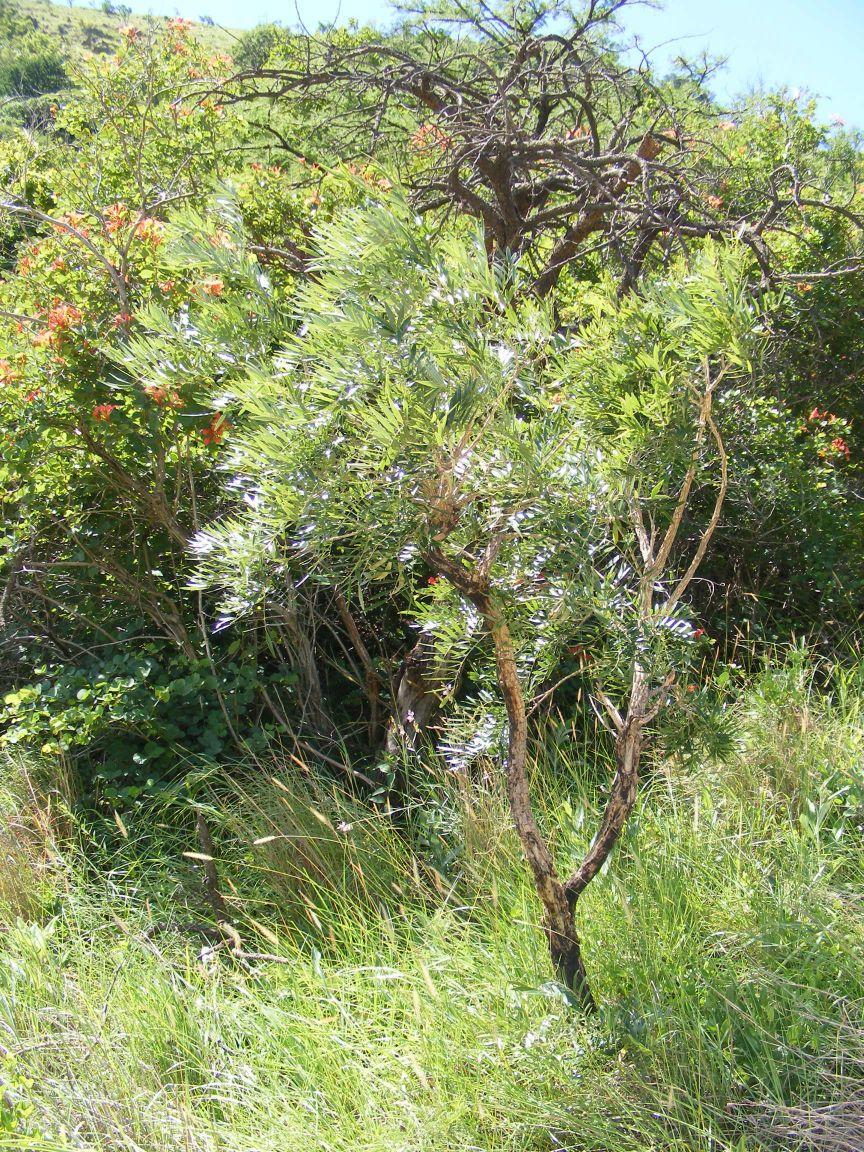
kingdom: Plantae
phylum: Tracheophyta
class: Magnoliopsida
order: Fabales
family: Fabaceae
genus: Mundulea
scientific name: Mundulea sericea
